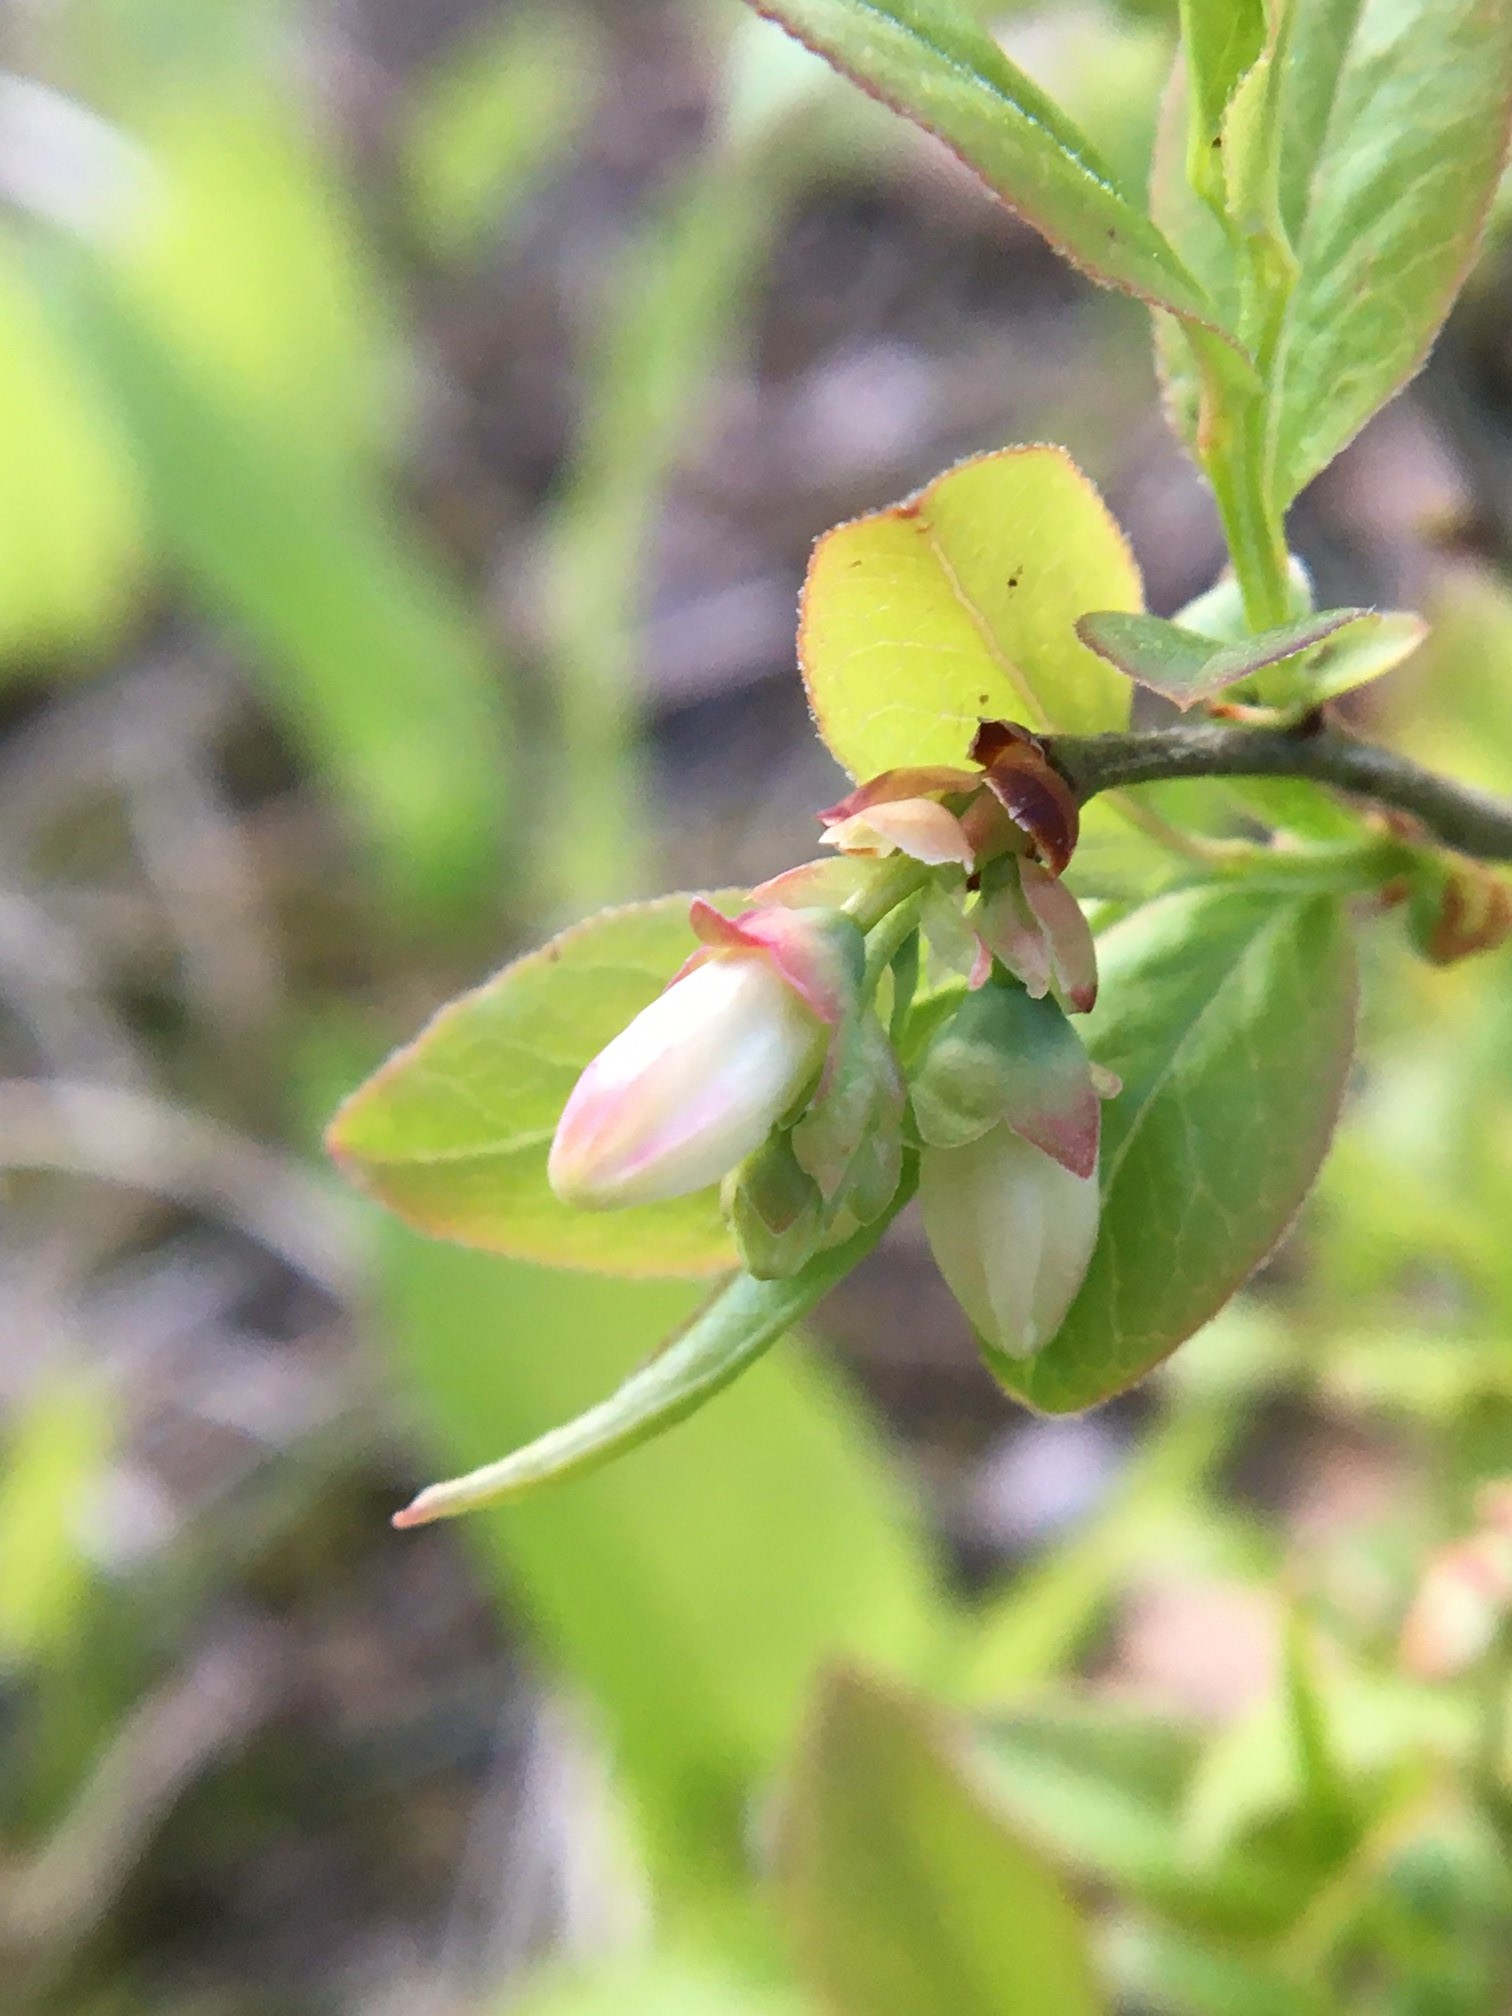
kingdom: Plantae
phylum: Tracheophyta
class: Magnoliopsida
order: Ericales
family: Ericaceae
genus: Vaccinium
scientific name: Vaccinium angustifolium
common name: Early lowbush blueberry
